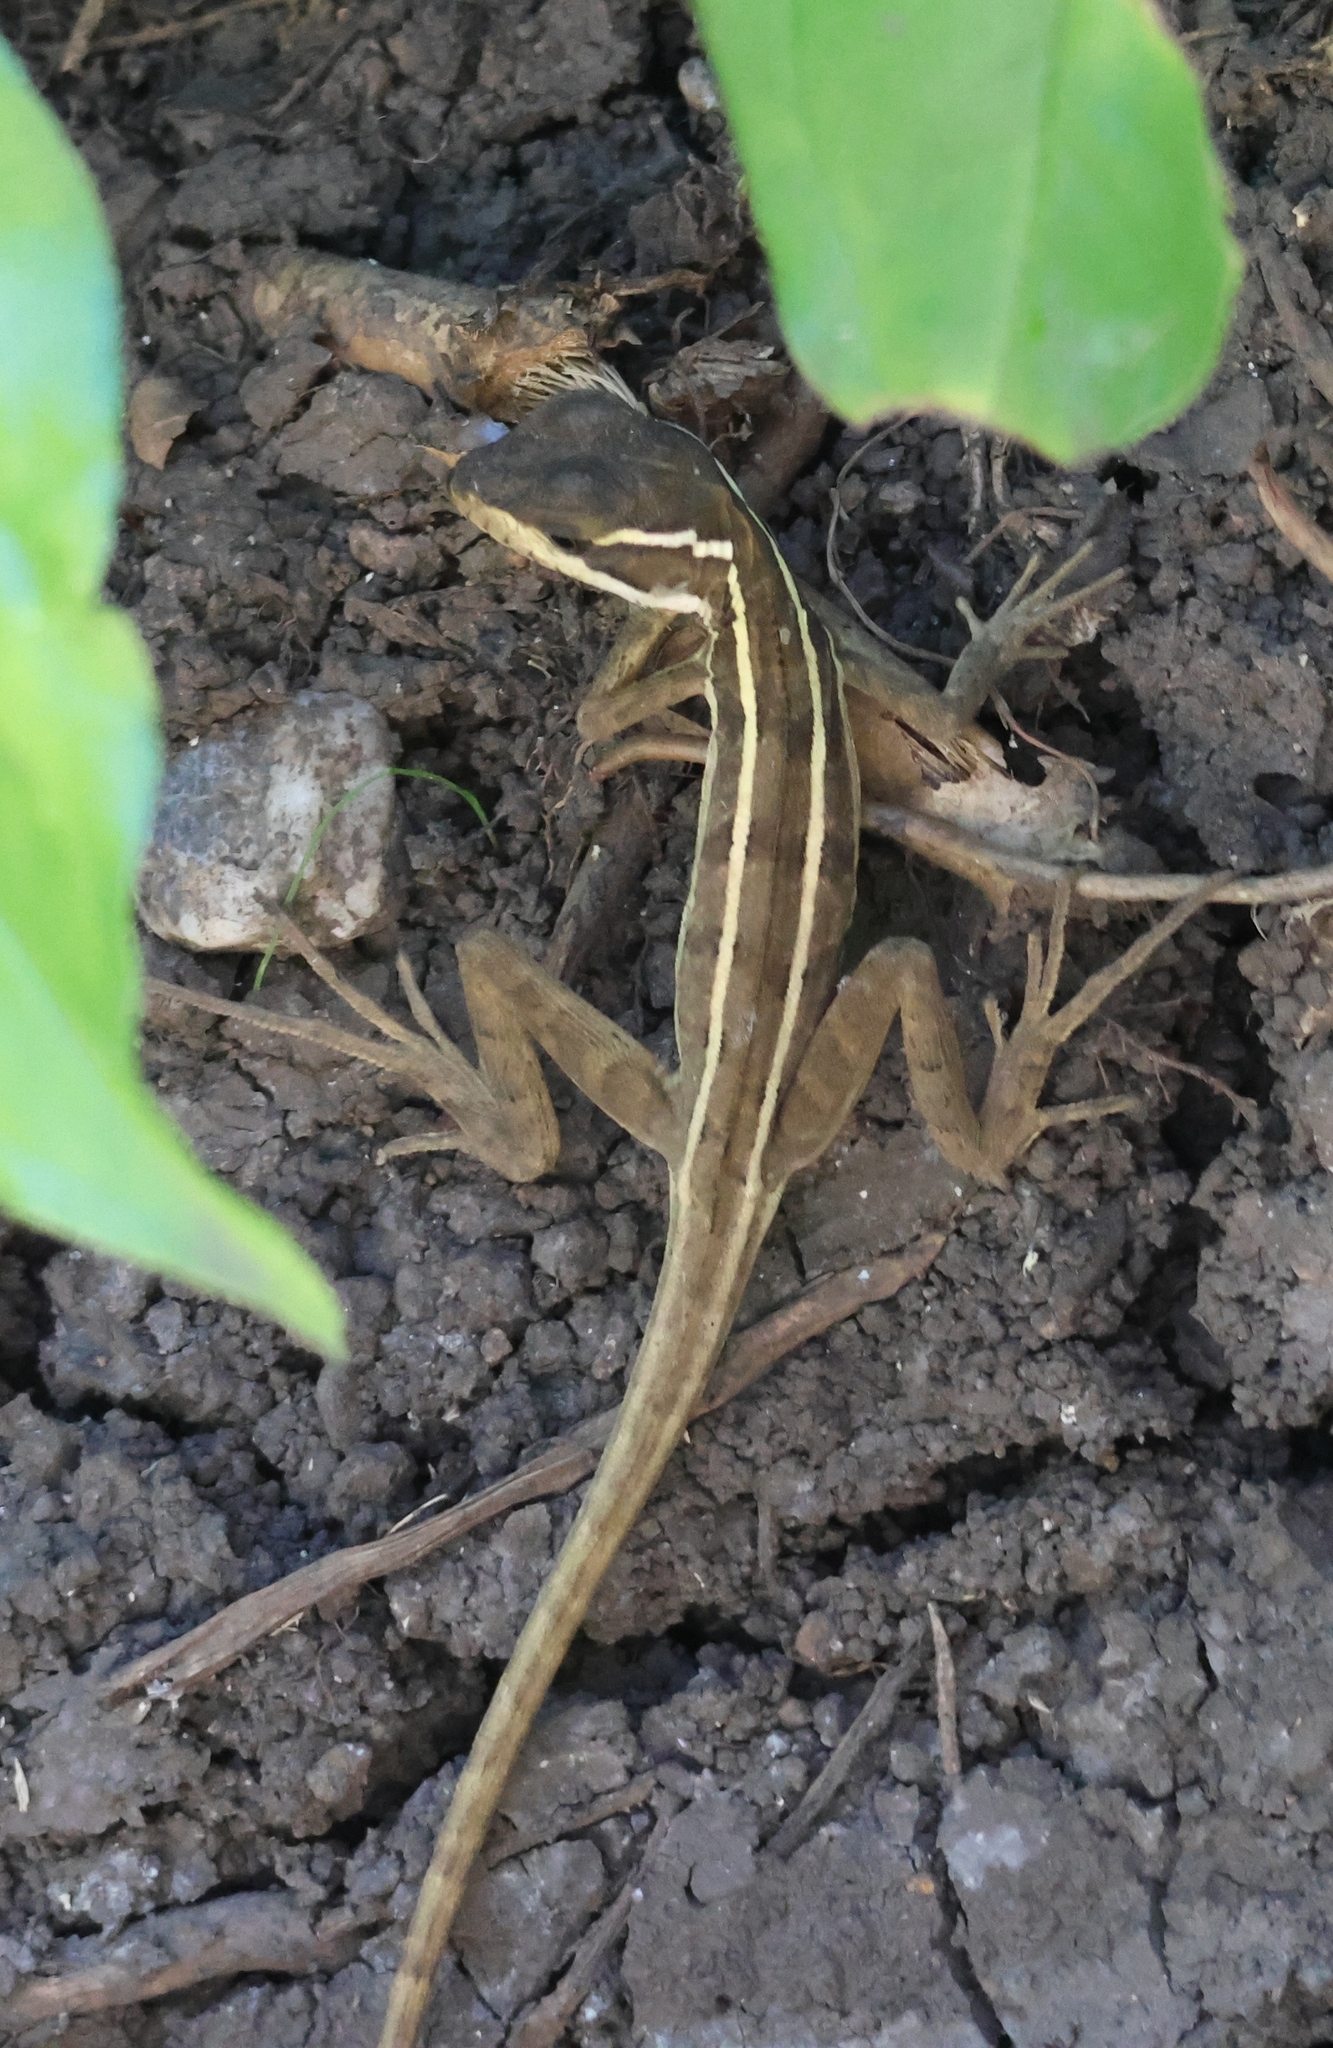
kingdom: Animalia
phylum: Chordata
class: Squamata
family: Corytophanidae
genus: Basiliscus
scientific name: Basiliscus vittatus
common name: Brown basilisk
